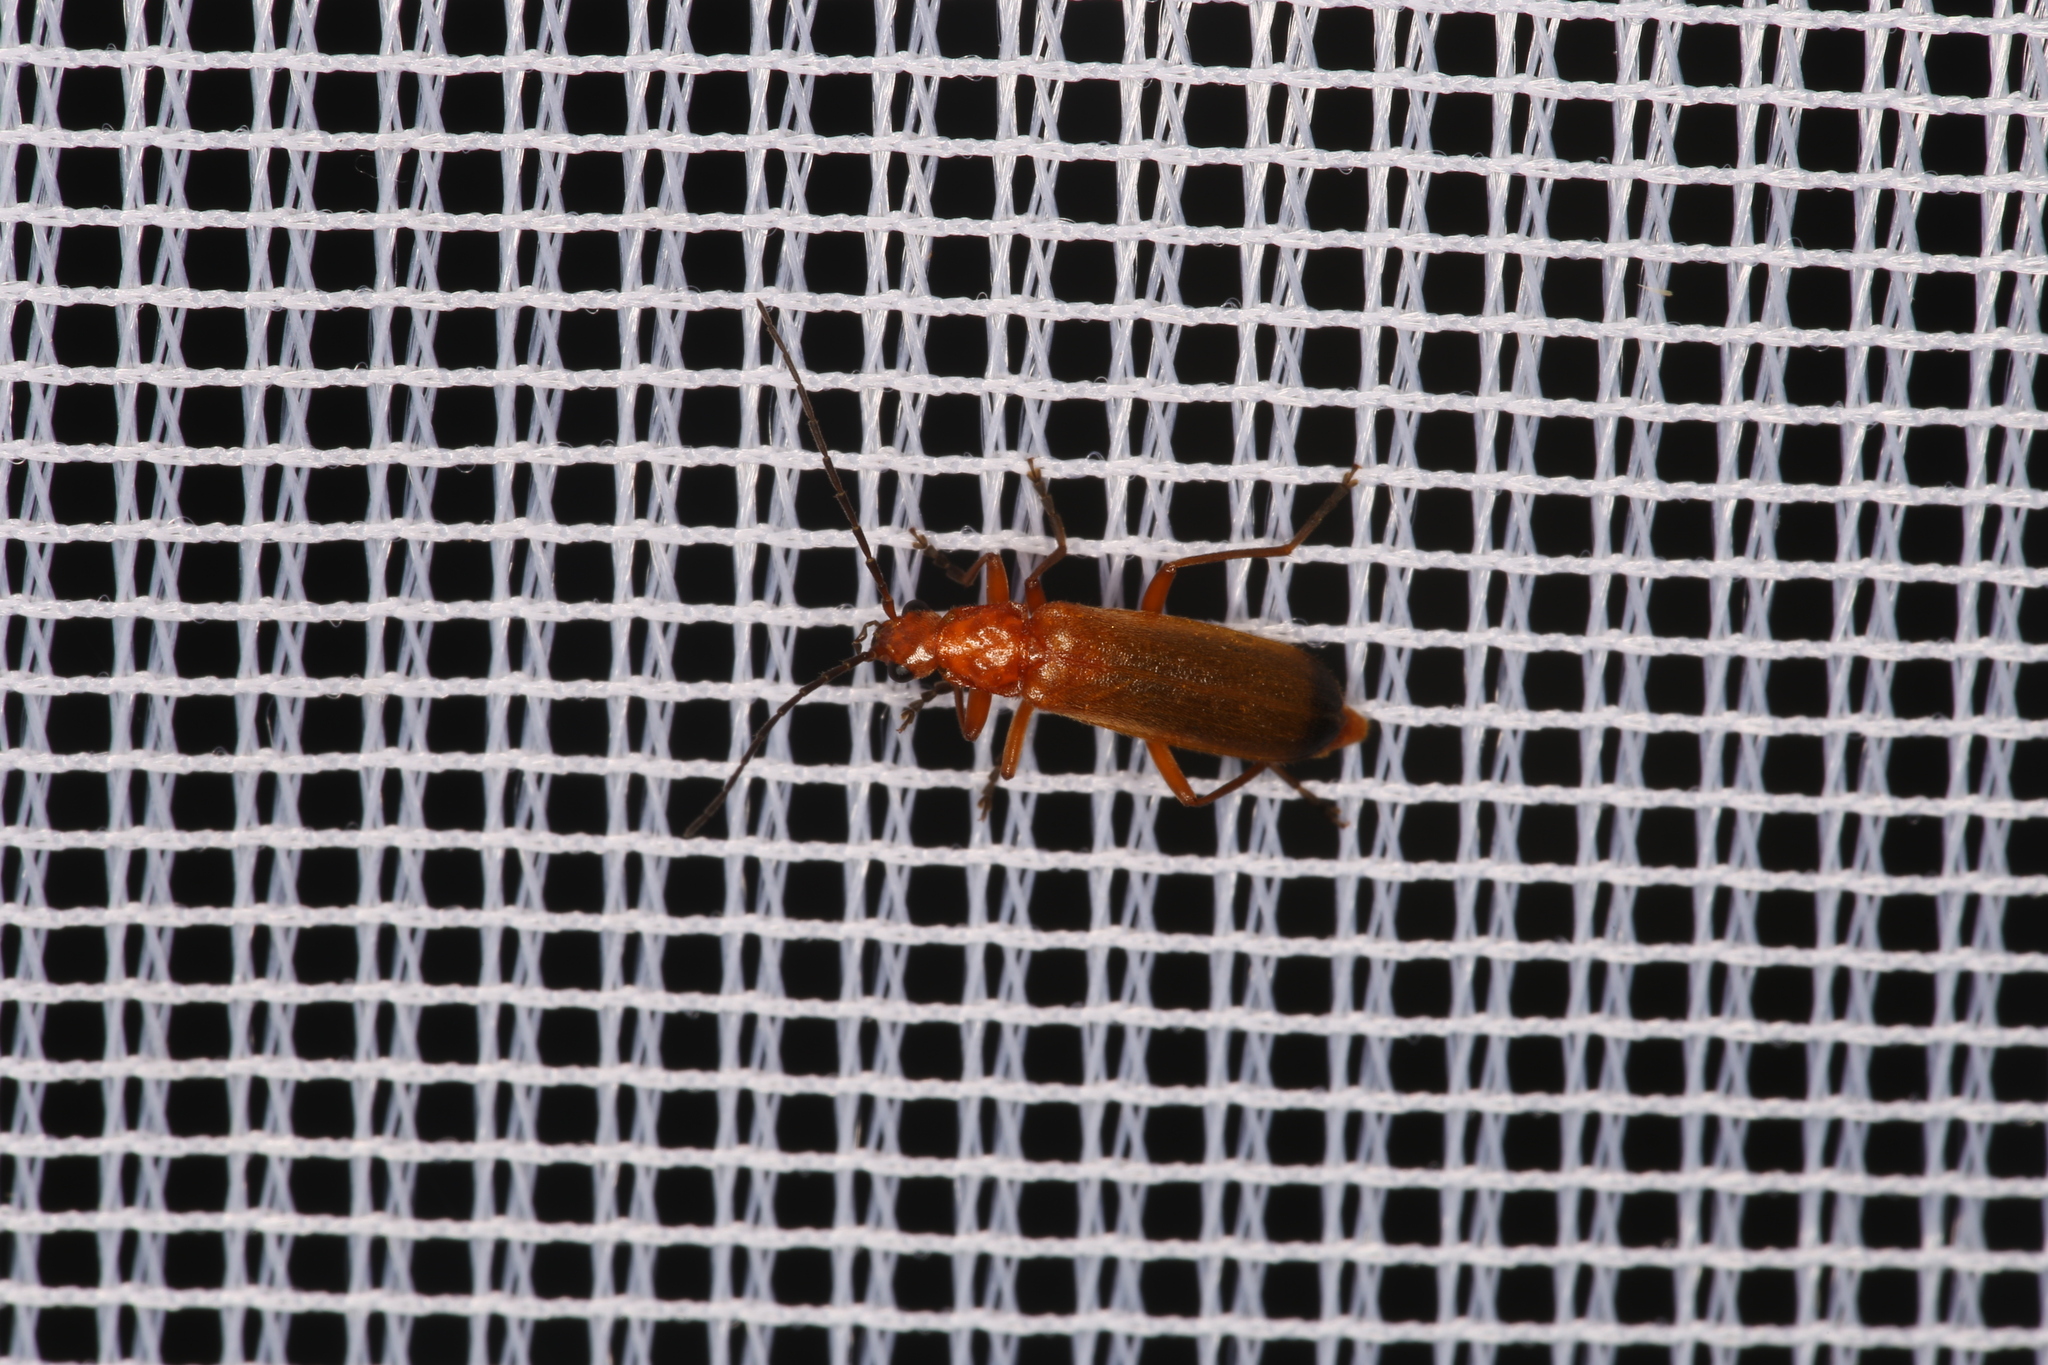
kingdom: Animalia
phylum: Arthropoda
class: Insecta
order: Coleoptera
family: Cantharidae
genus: Rhagonycha
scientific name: Rhagonycha fulva
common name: Common red soldier beetle
